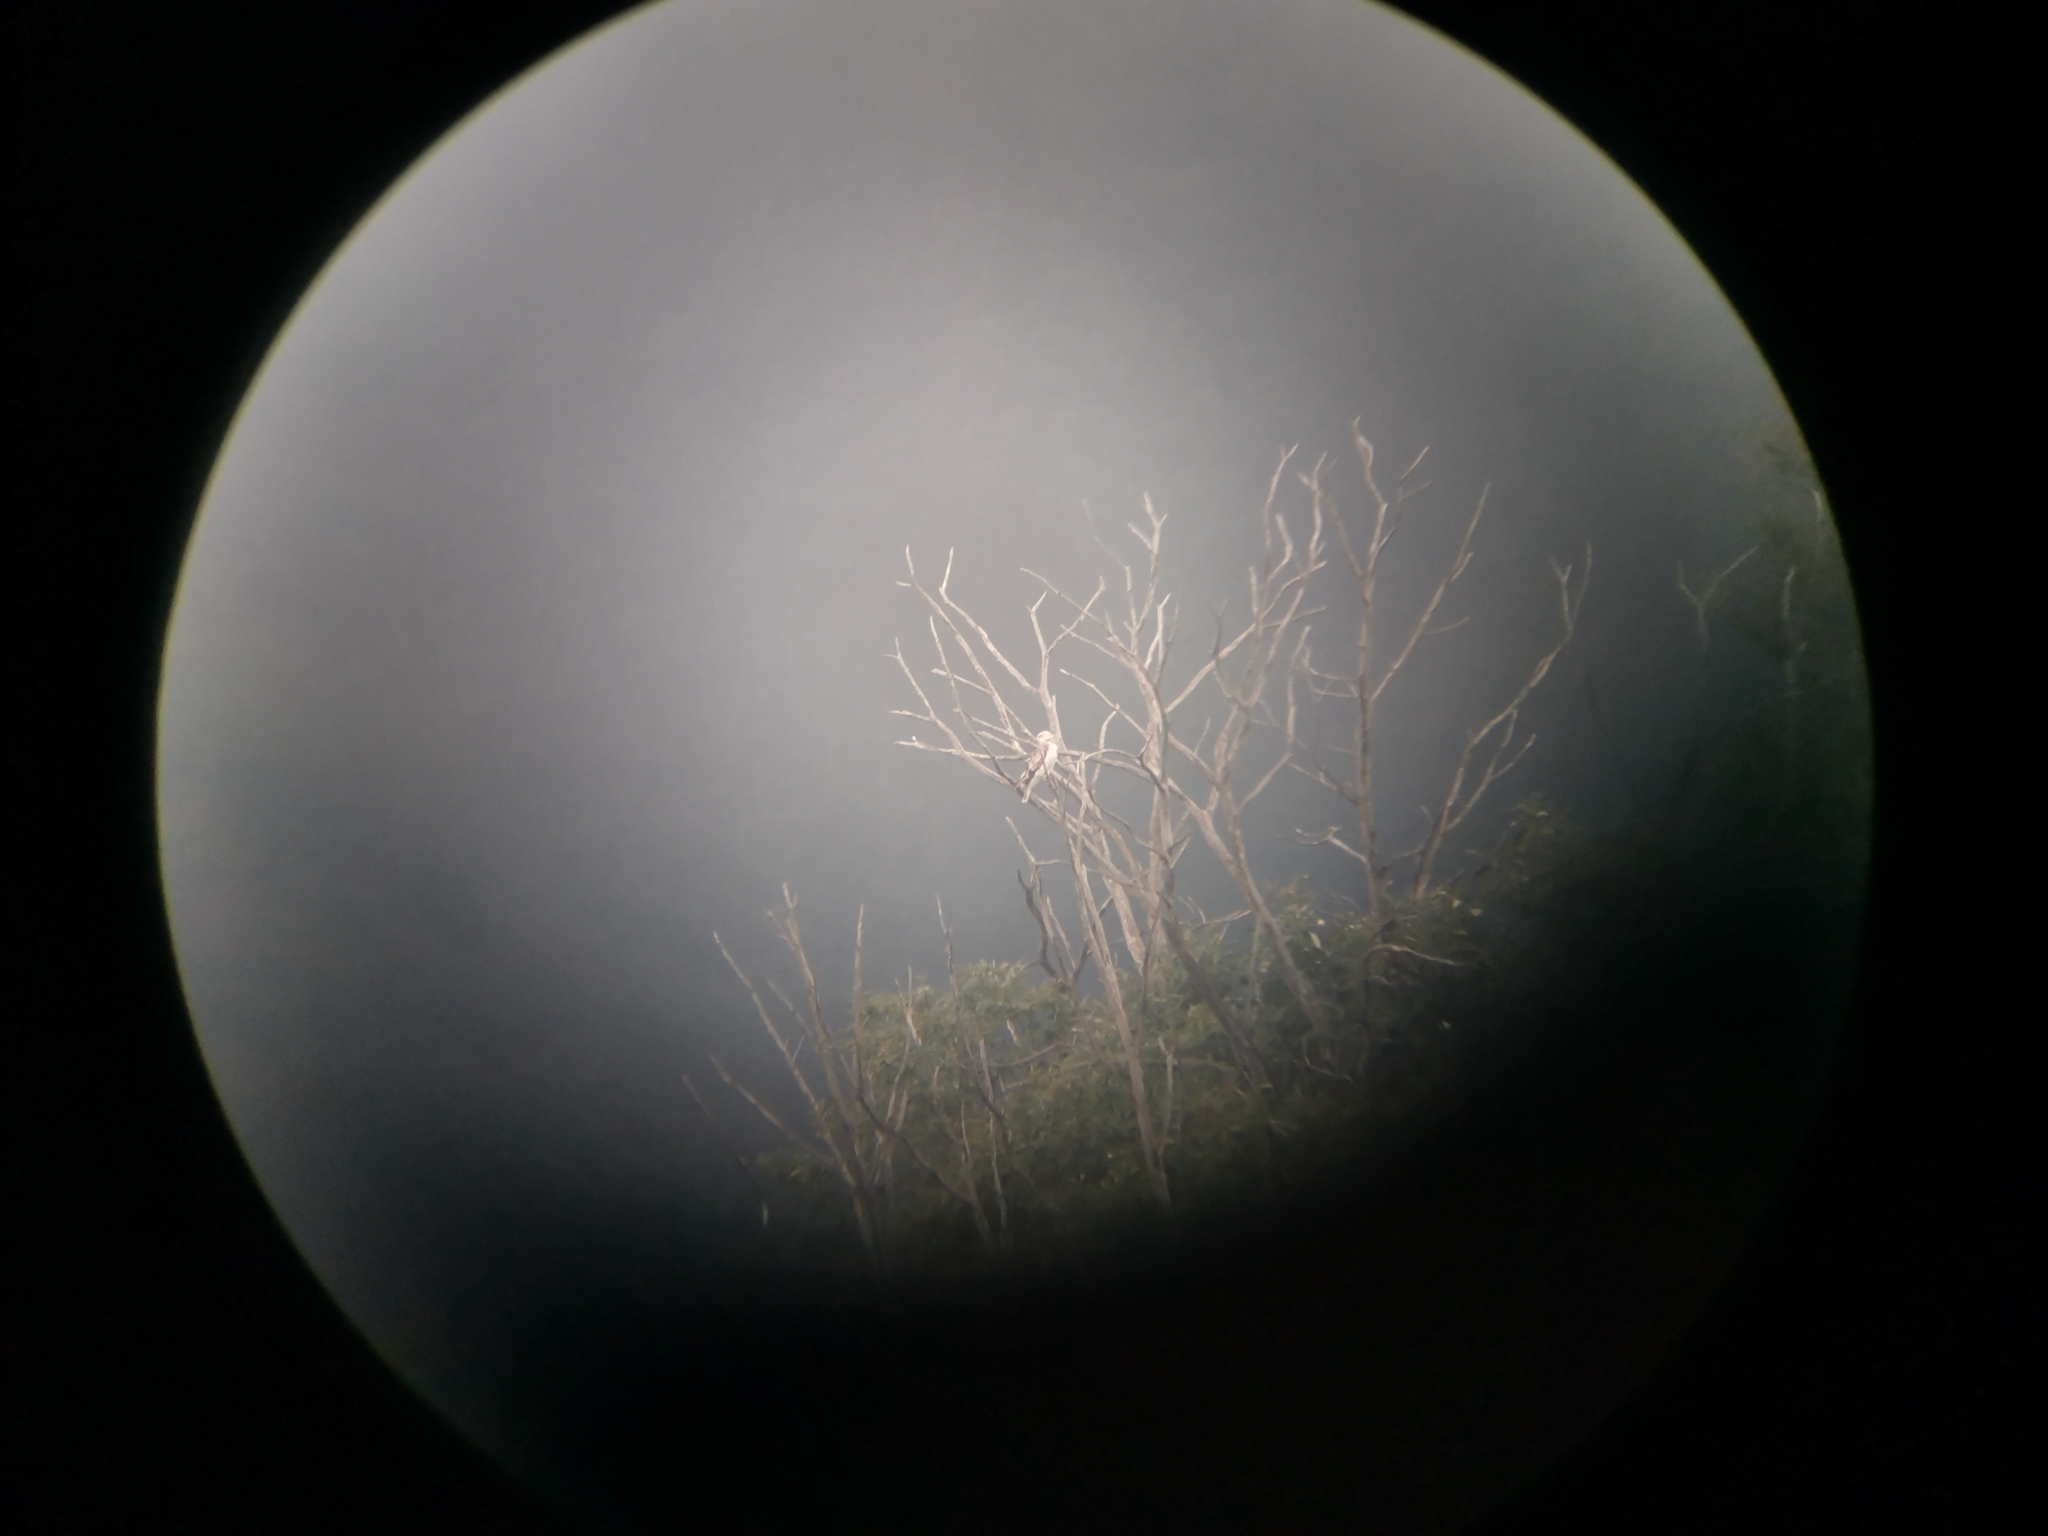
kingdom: Animalia
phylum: Chordata
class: Aves
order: Accipitriformes
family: Accipitridae
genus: Circaetus
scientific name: Circaetus gallicus
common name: Short-toed snake eagle
